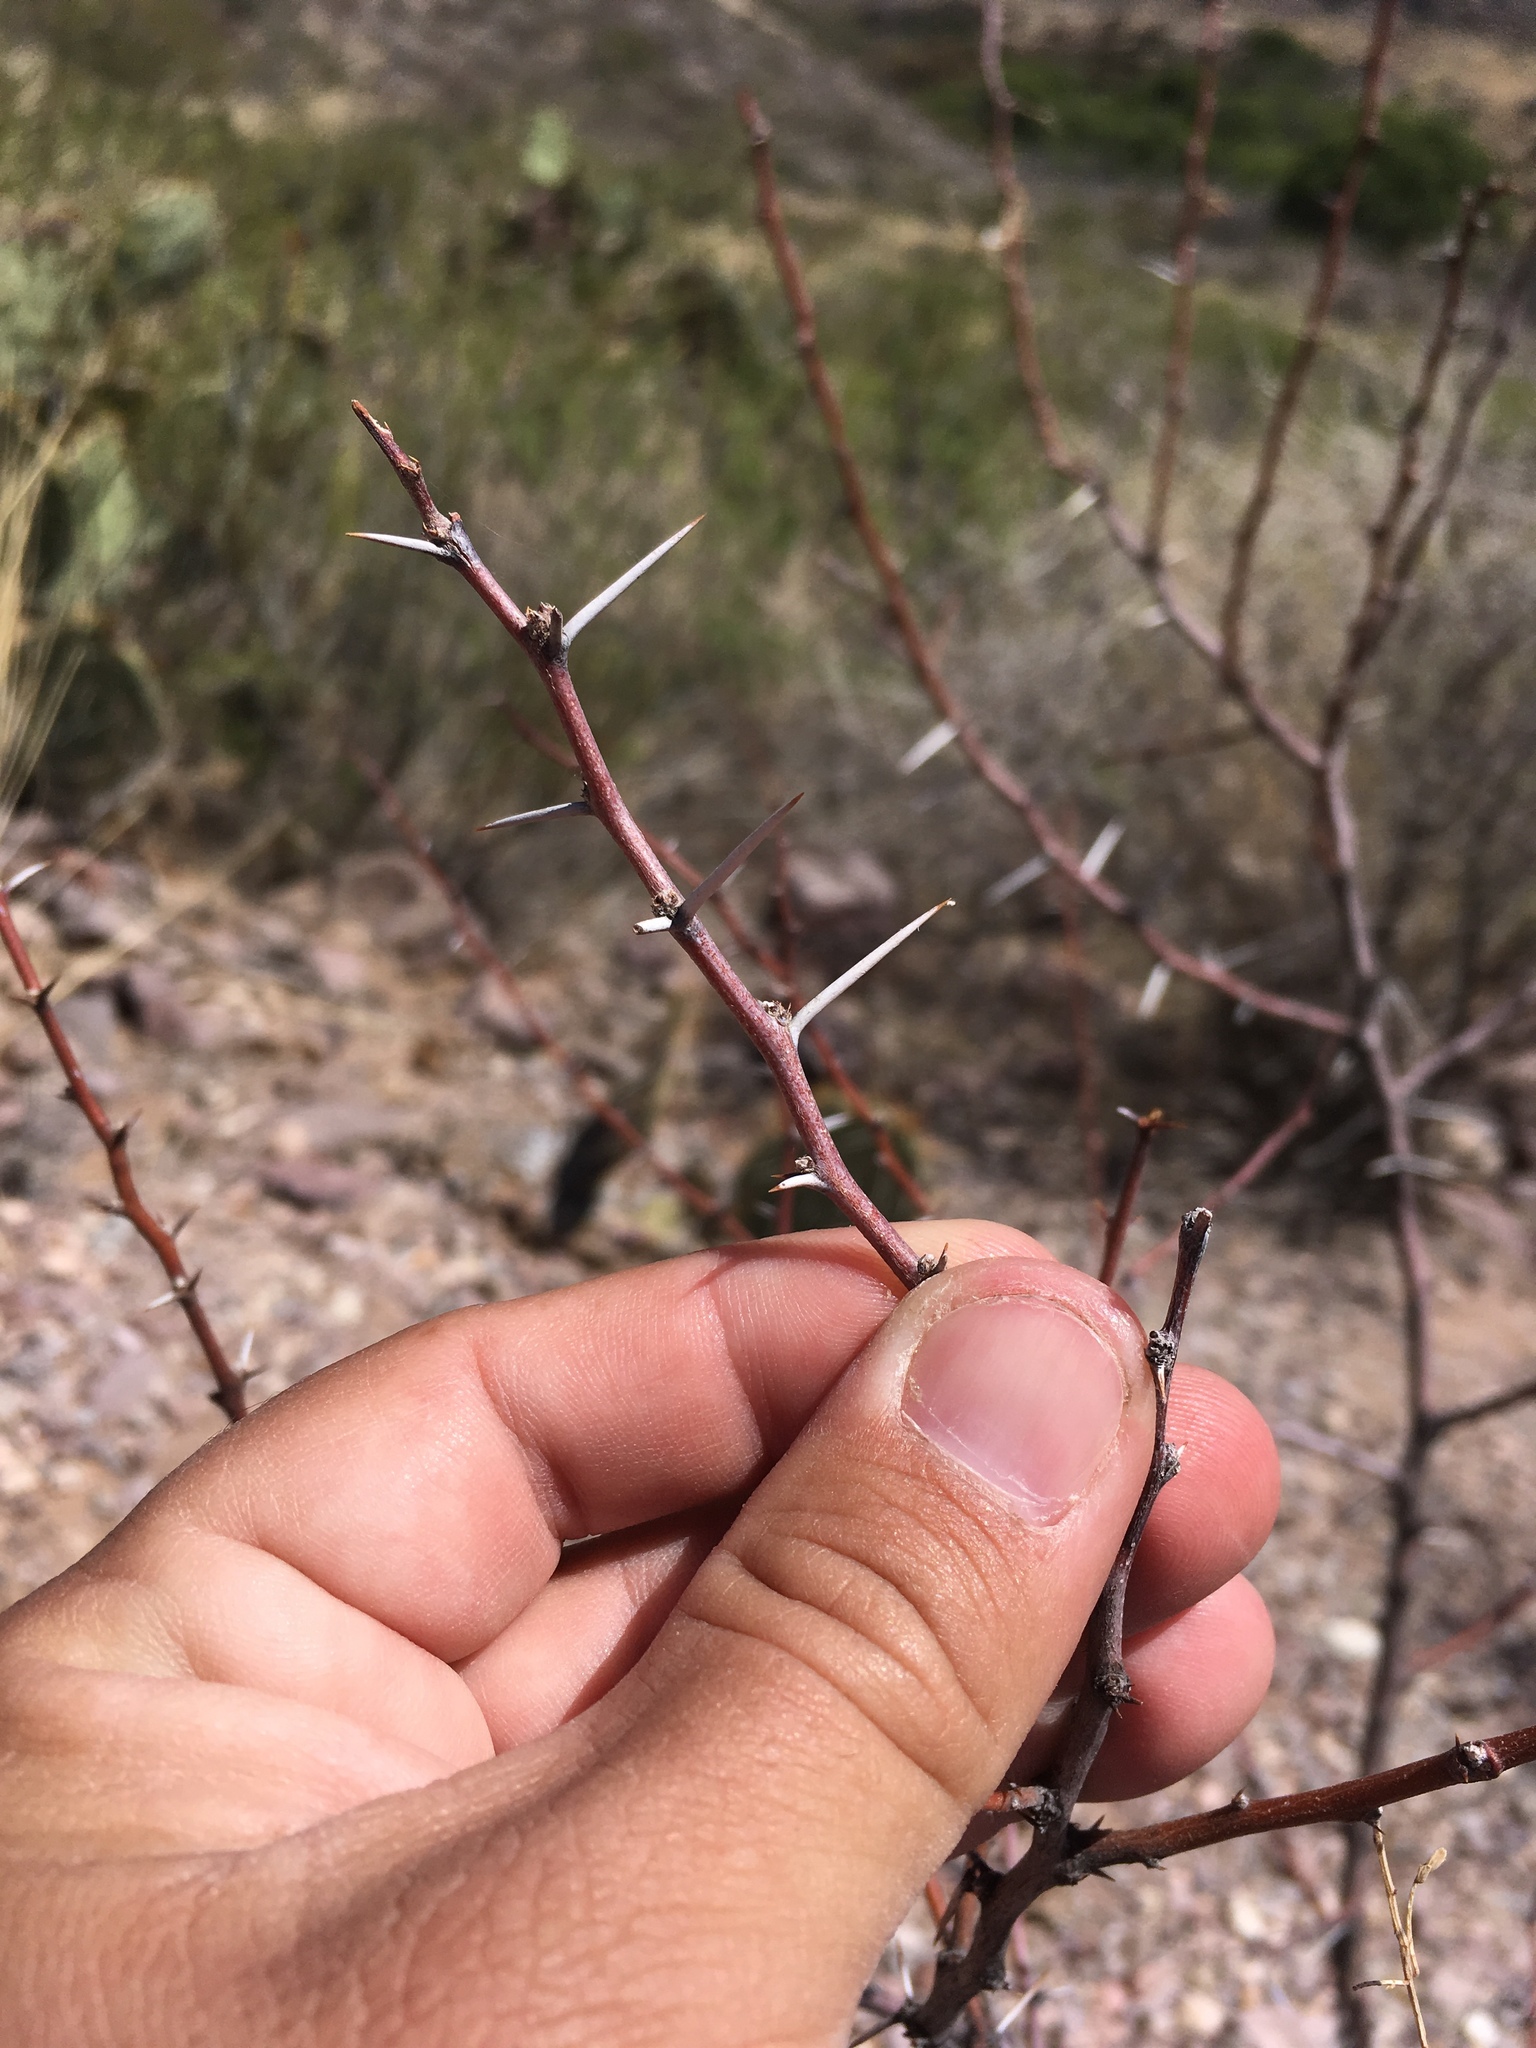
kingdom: Plantae
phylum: Tracheophyta
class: Magnoliopsida
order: Fabales
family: Fabaceae
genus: Vachellia
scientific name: Vachellia constricta
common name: Mescat acacia
